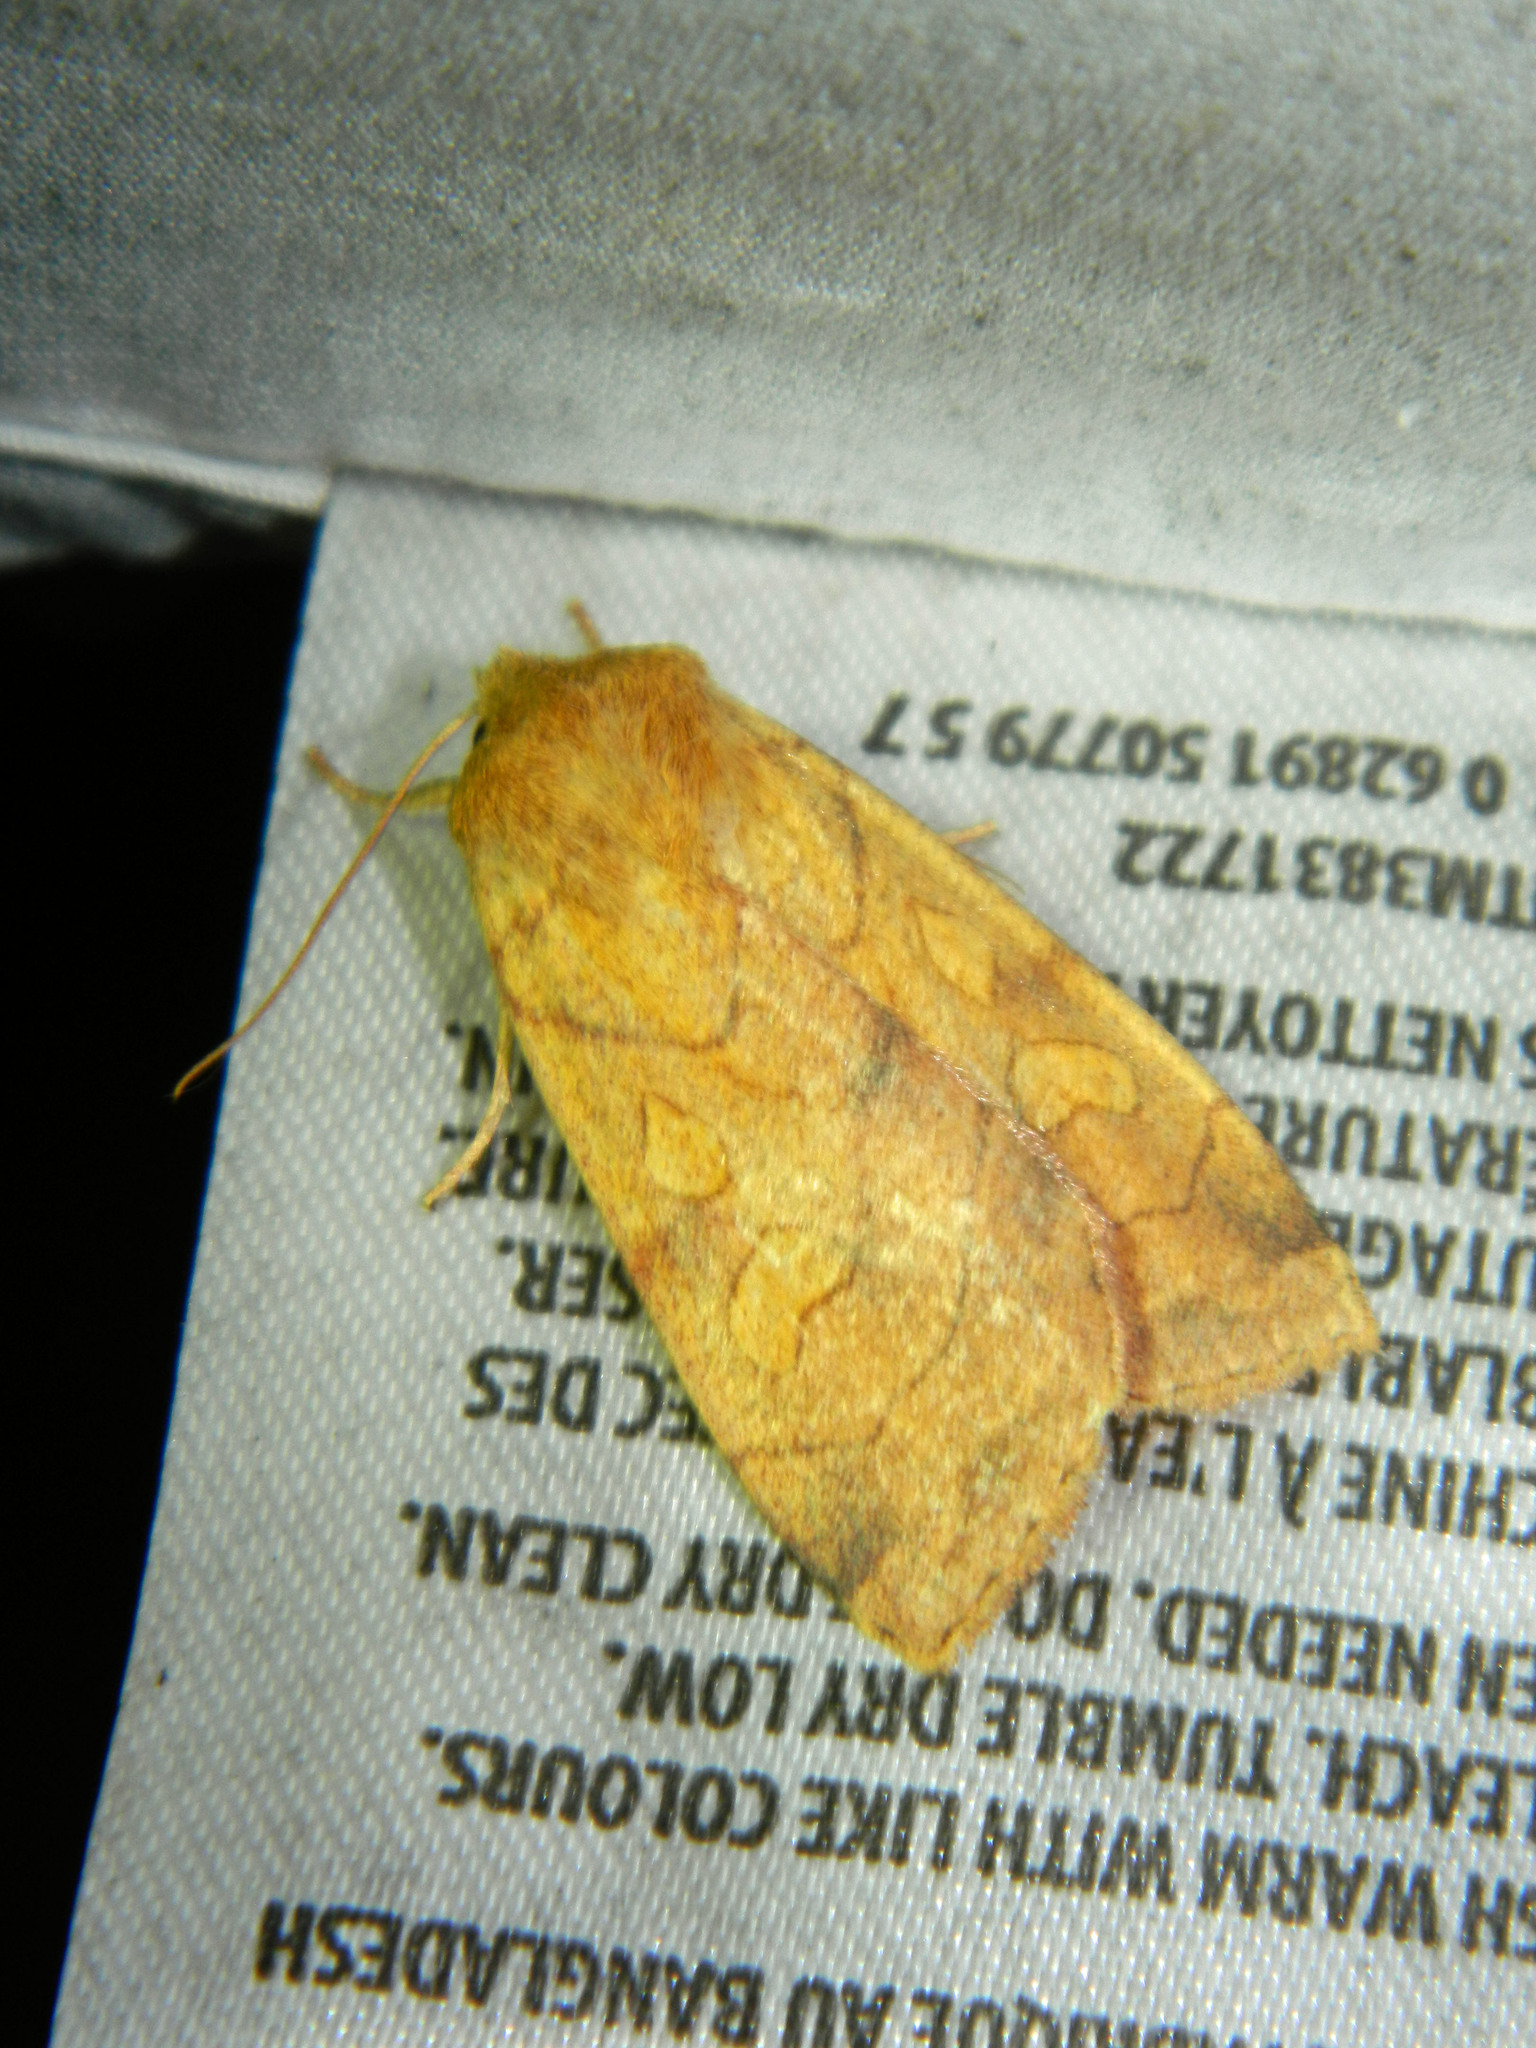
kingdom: Animalia
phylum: Arthropoda
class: Insecta
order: Lepidoptera
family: Noctuidae
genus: Enargia
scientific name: Enargia decolor
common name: Aspen twoleaf tier moth
